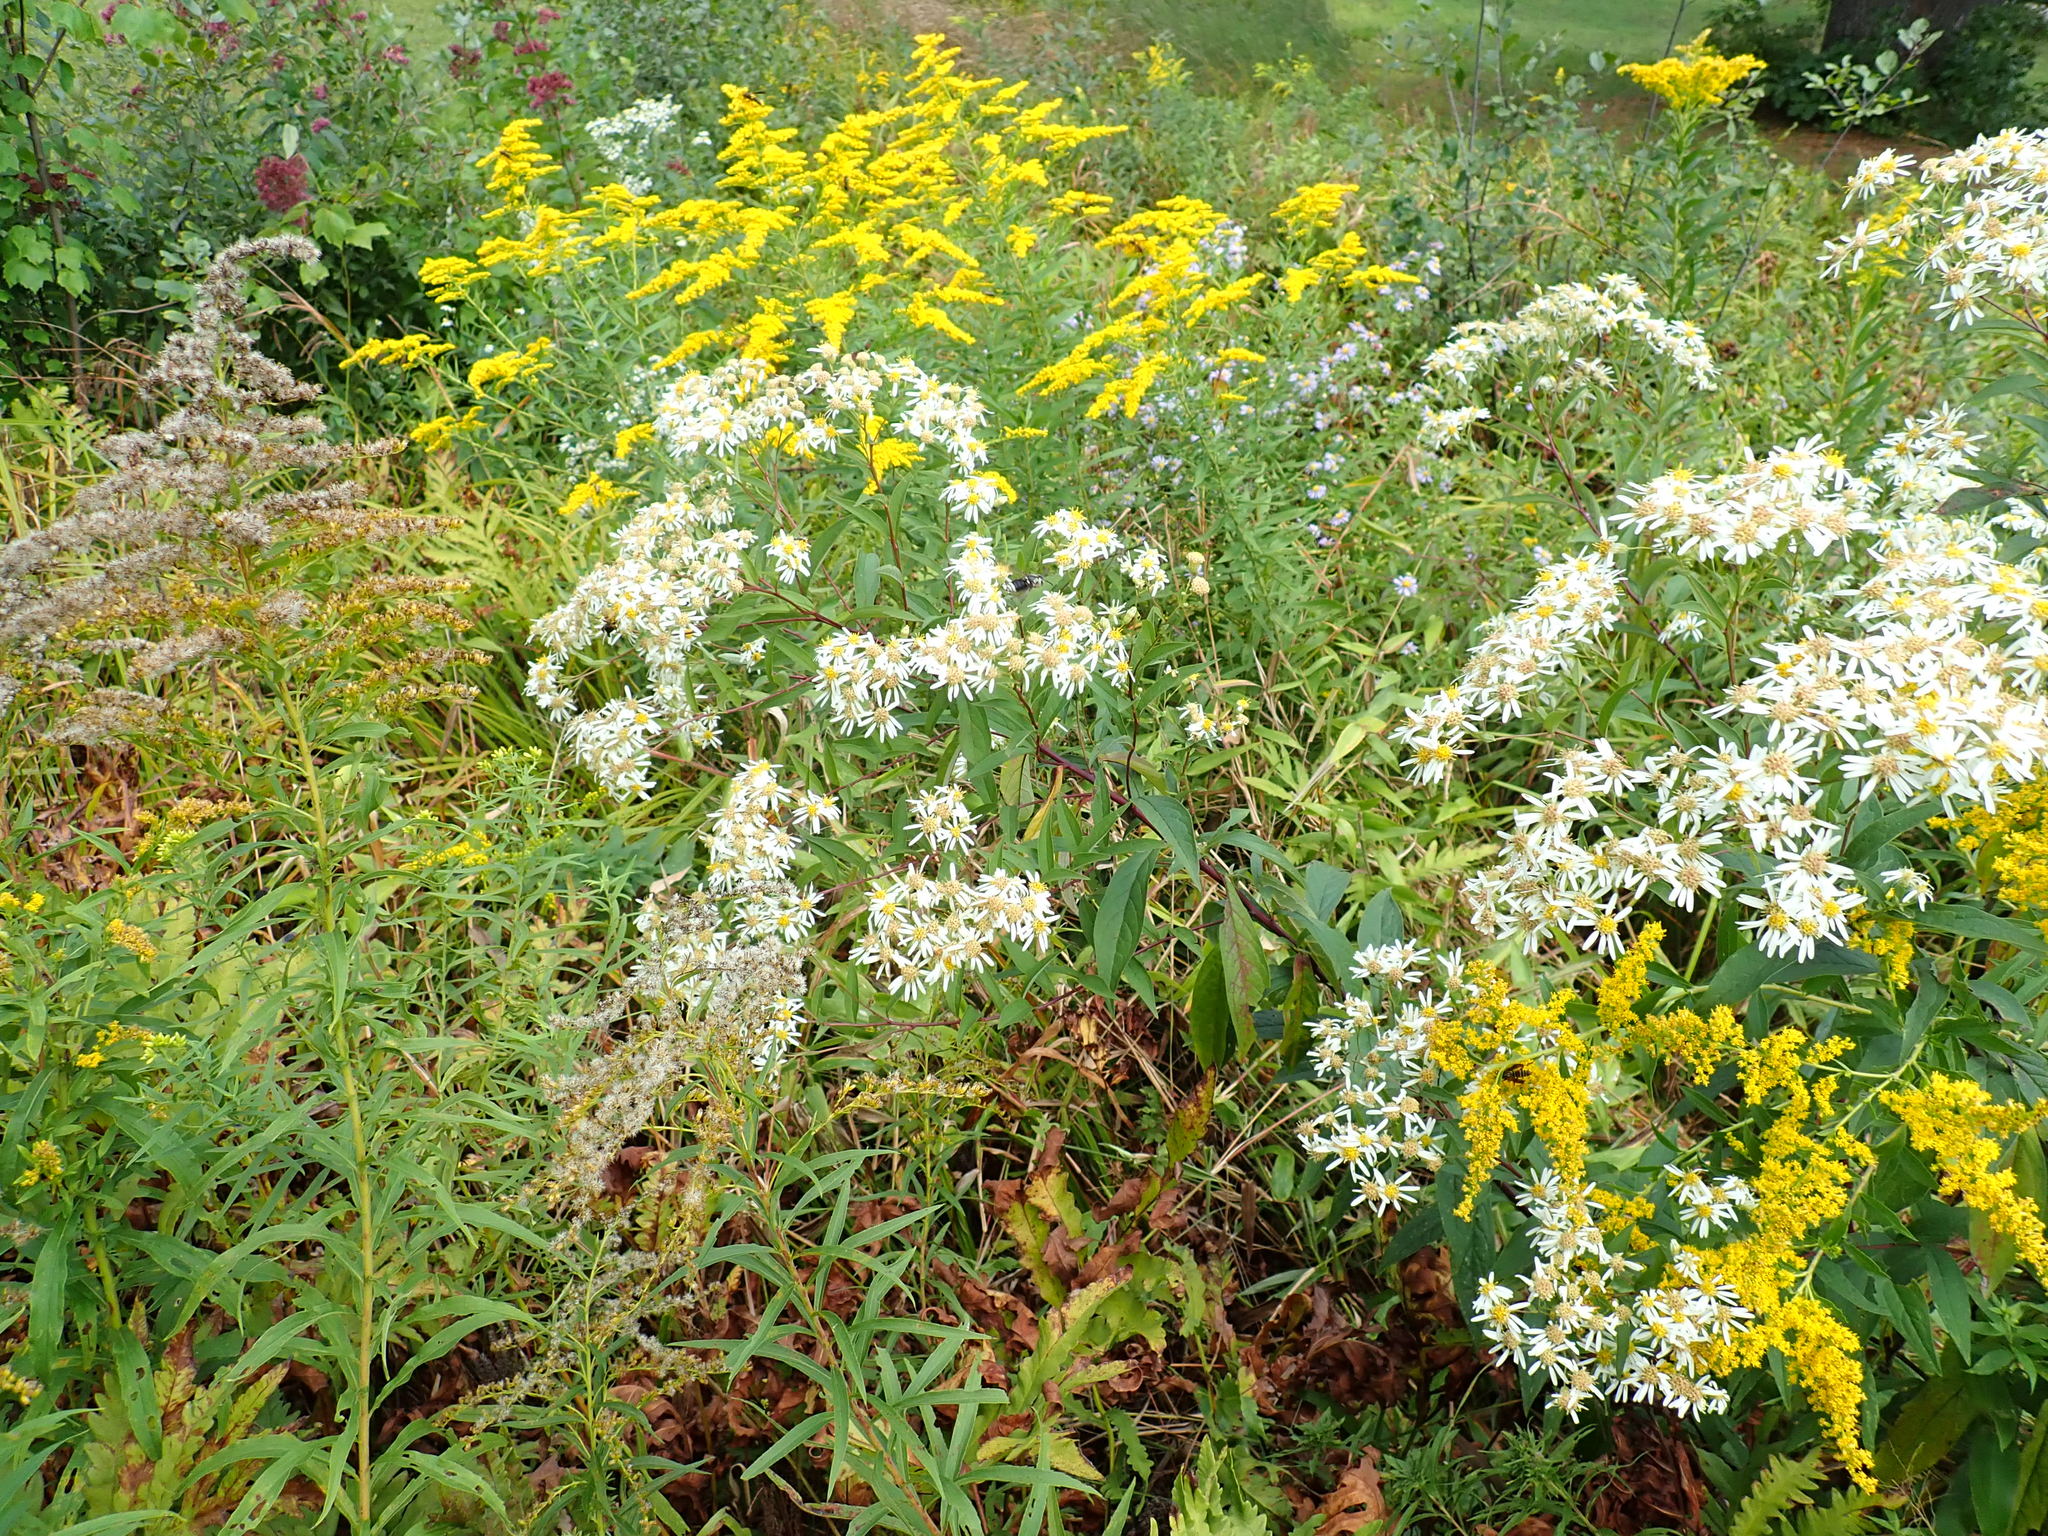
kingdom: Plantae
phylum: Tracheophyta
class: Magnoliopsida
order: Asterales
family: Asteraceae
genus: Doellingeria
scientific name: Doellingeria umbellata
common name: Flat-top white aster
